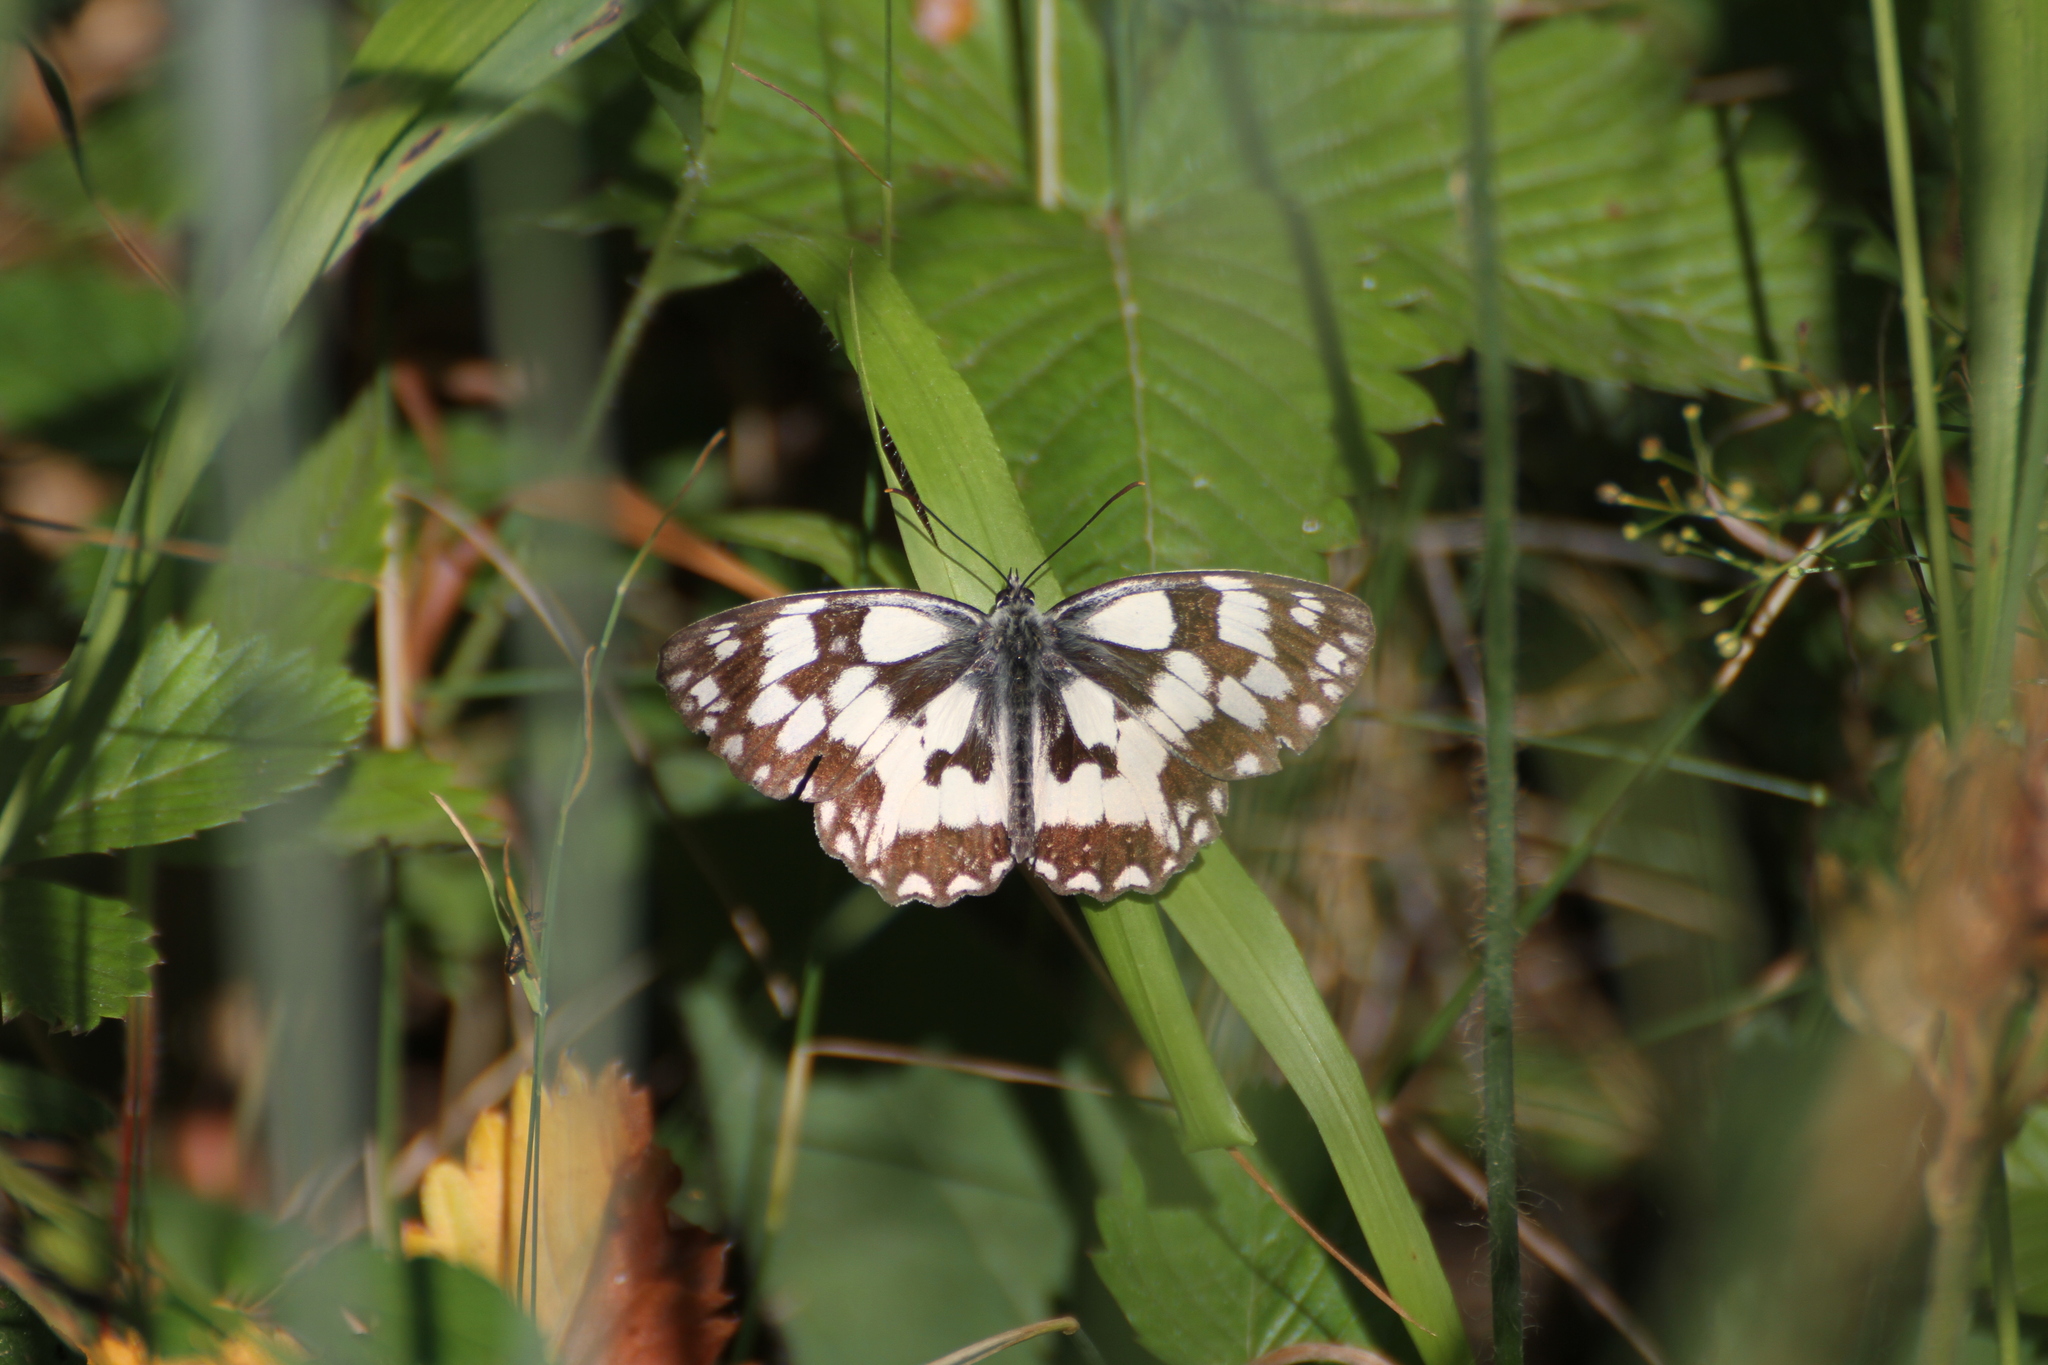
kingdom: Animalia
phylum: Arthropoda
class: Insecta
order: Lepidoptera
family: Nymphalidae
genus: Melanargia
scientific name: Melanargia galathea
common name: Marbled white
